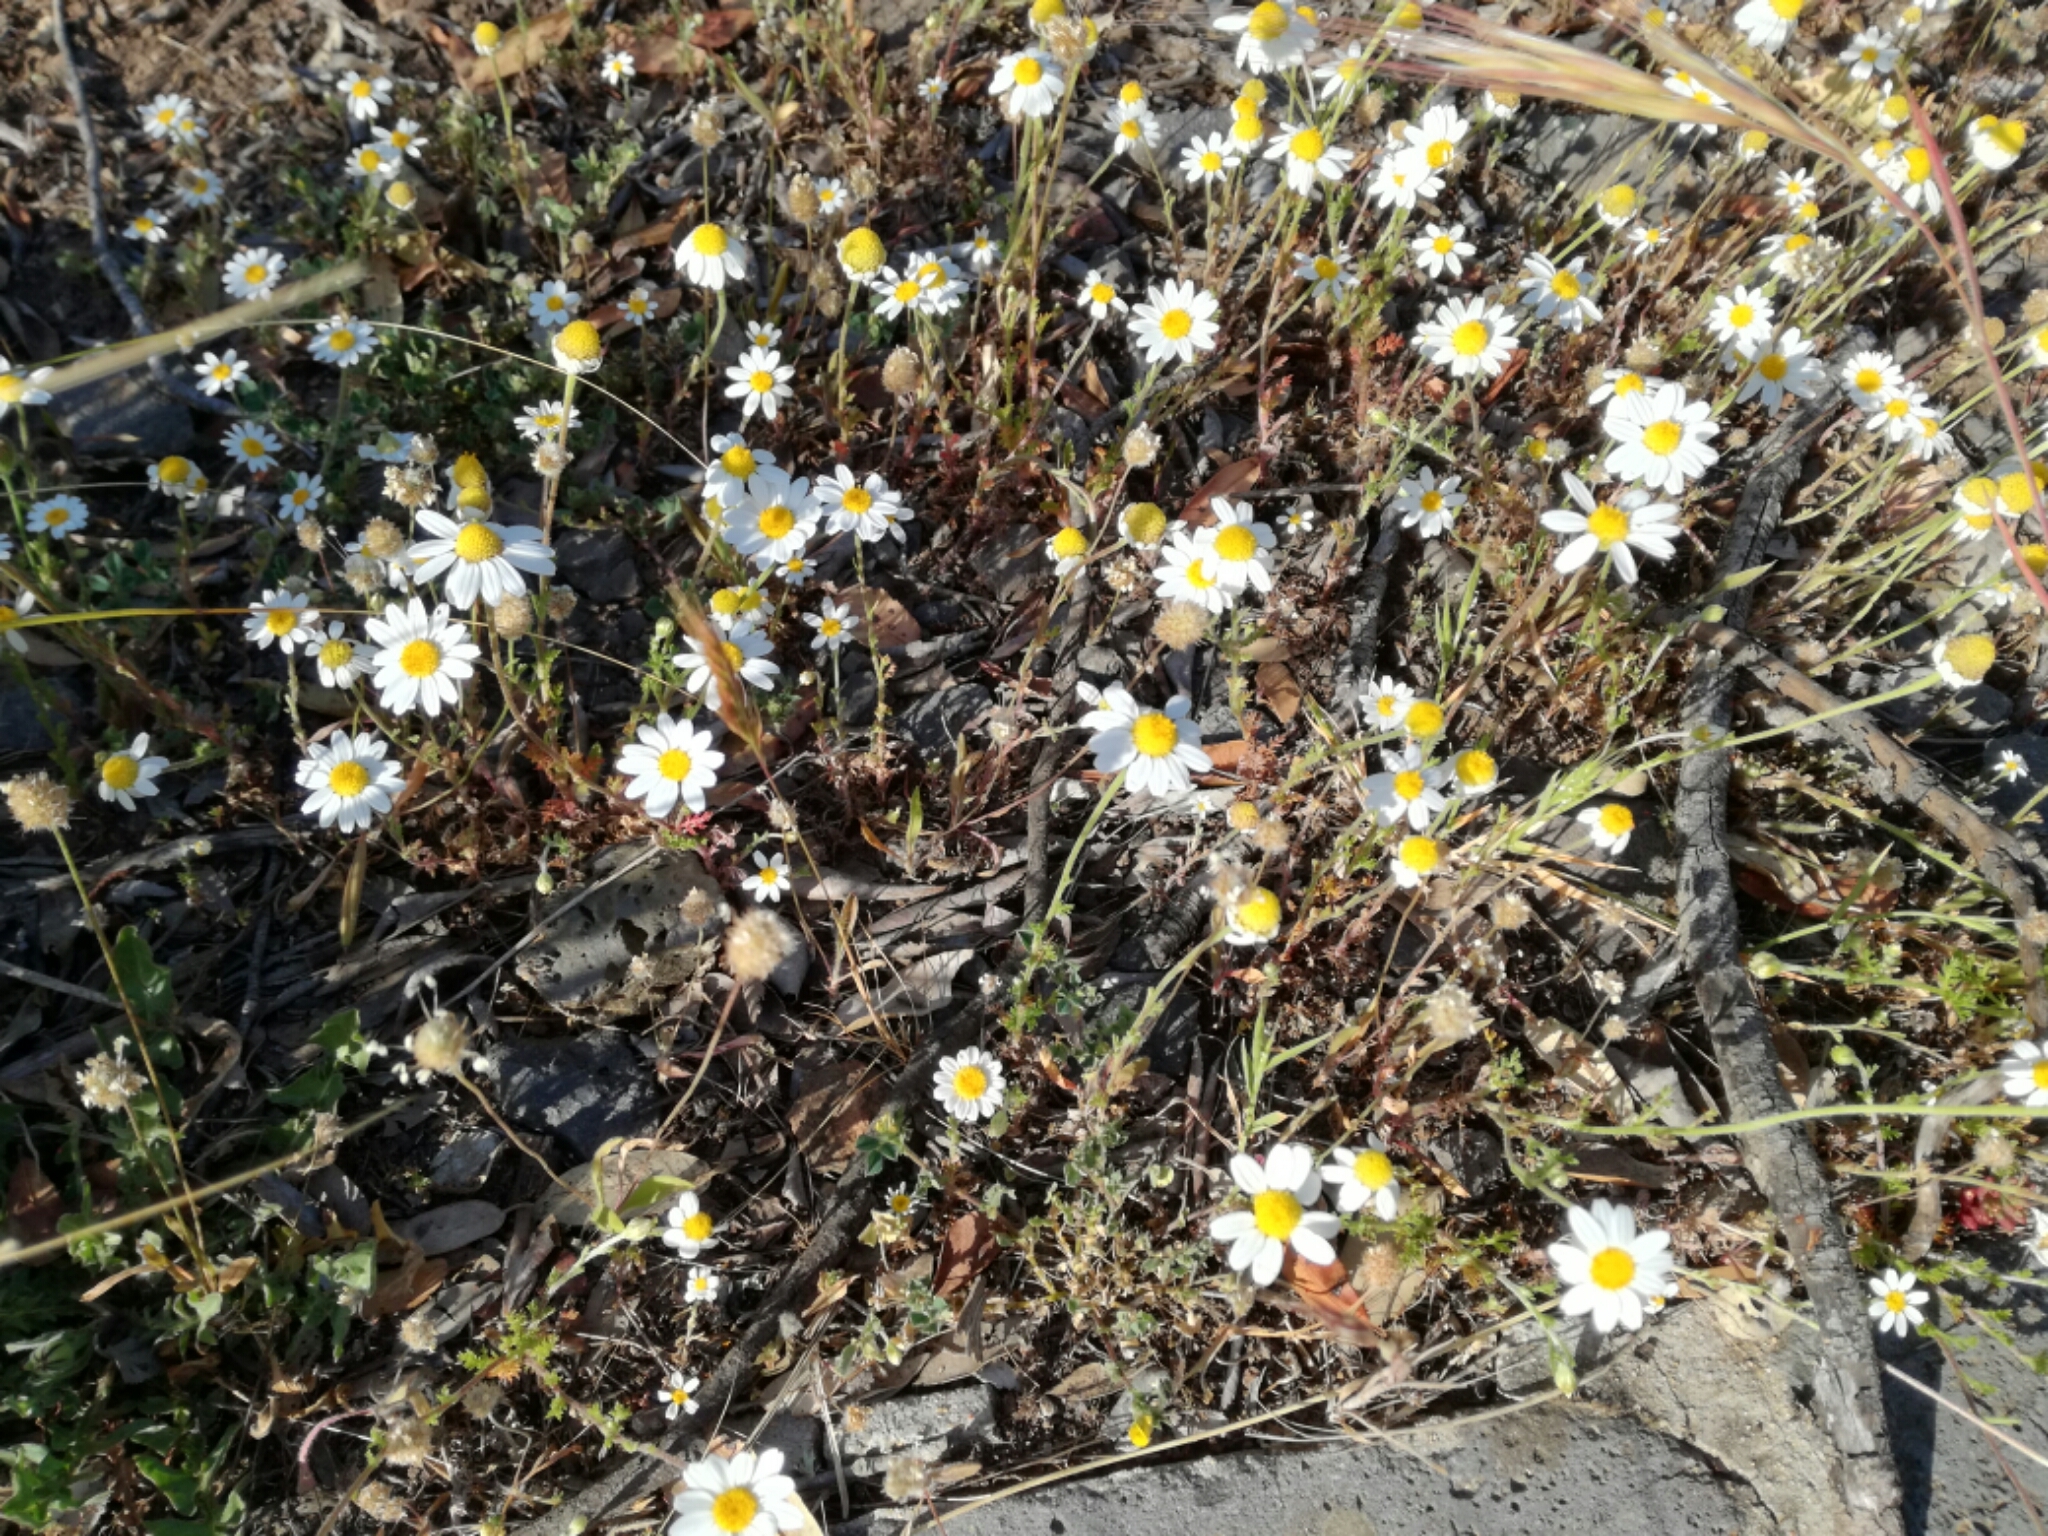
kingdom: Plantae
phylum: Tracheophyta
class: Magnoliopsida
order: Asterales
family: Asteraceae
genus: Anthemis
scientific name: Anthemis arvensis
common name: Corn chamomile
